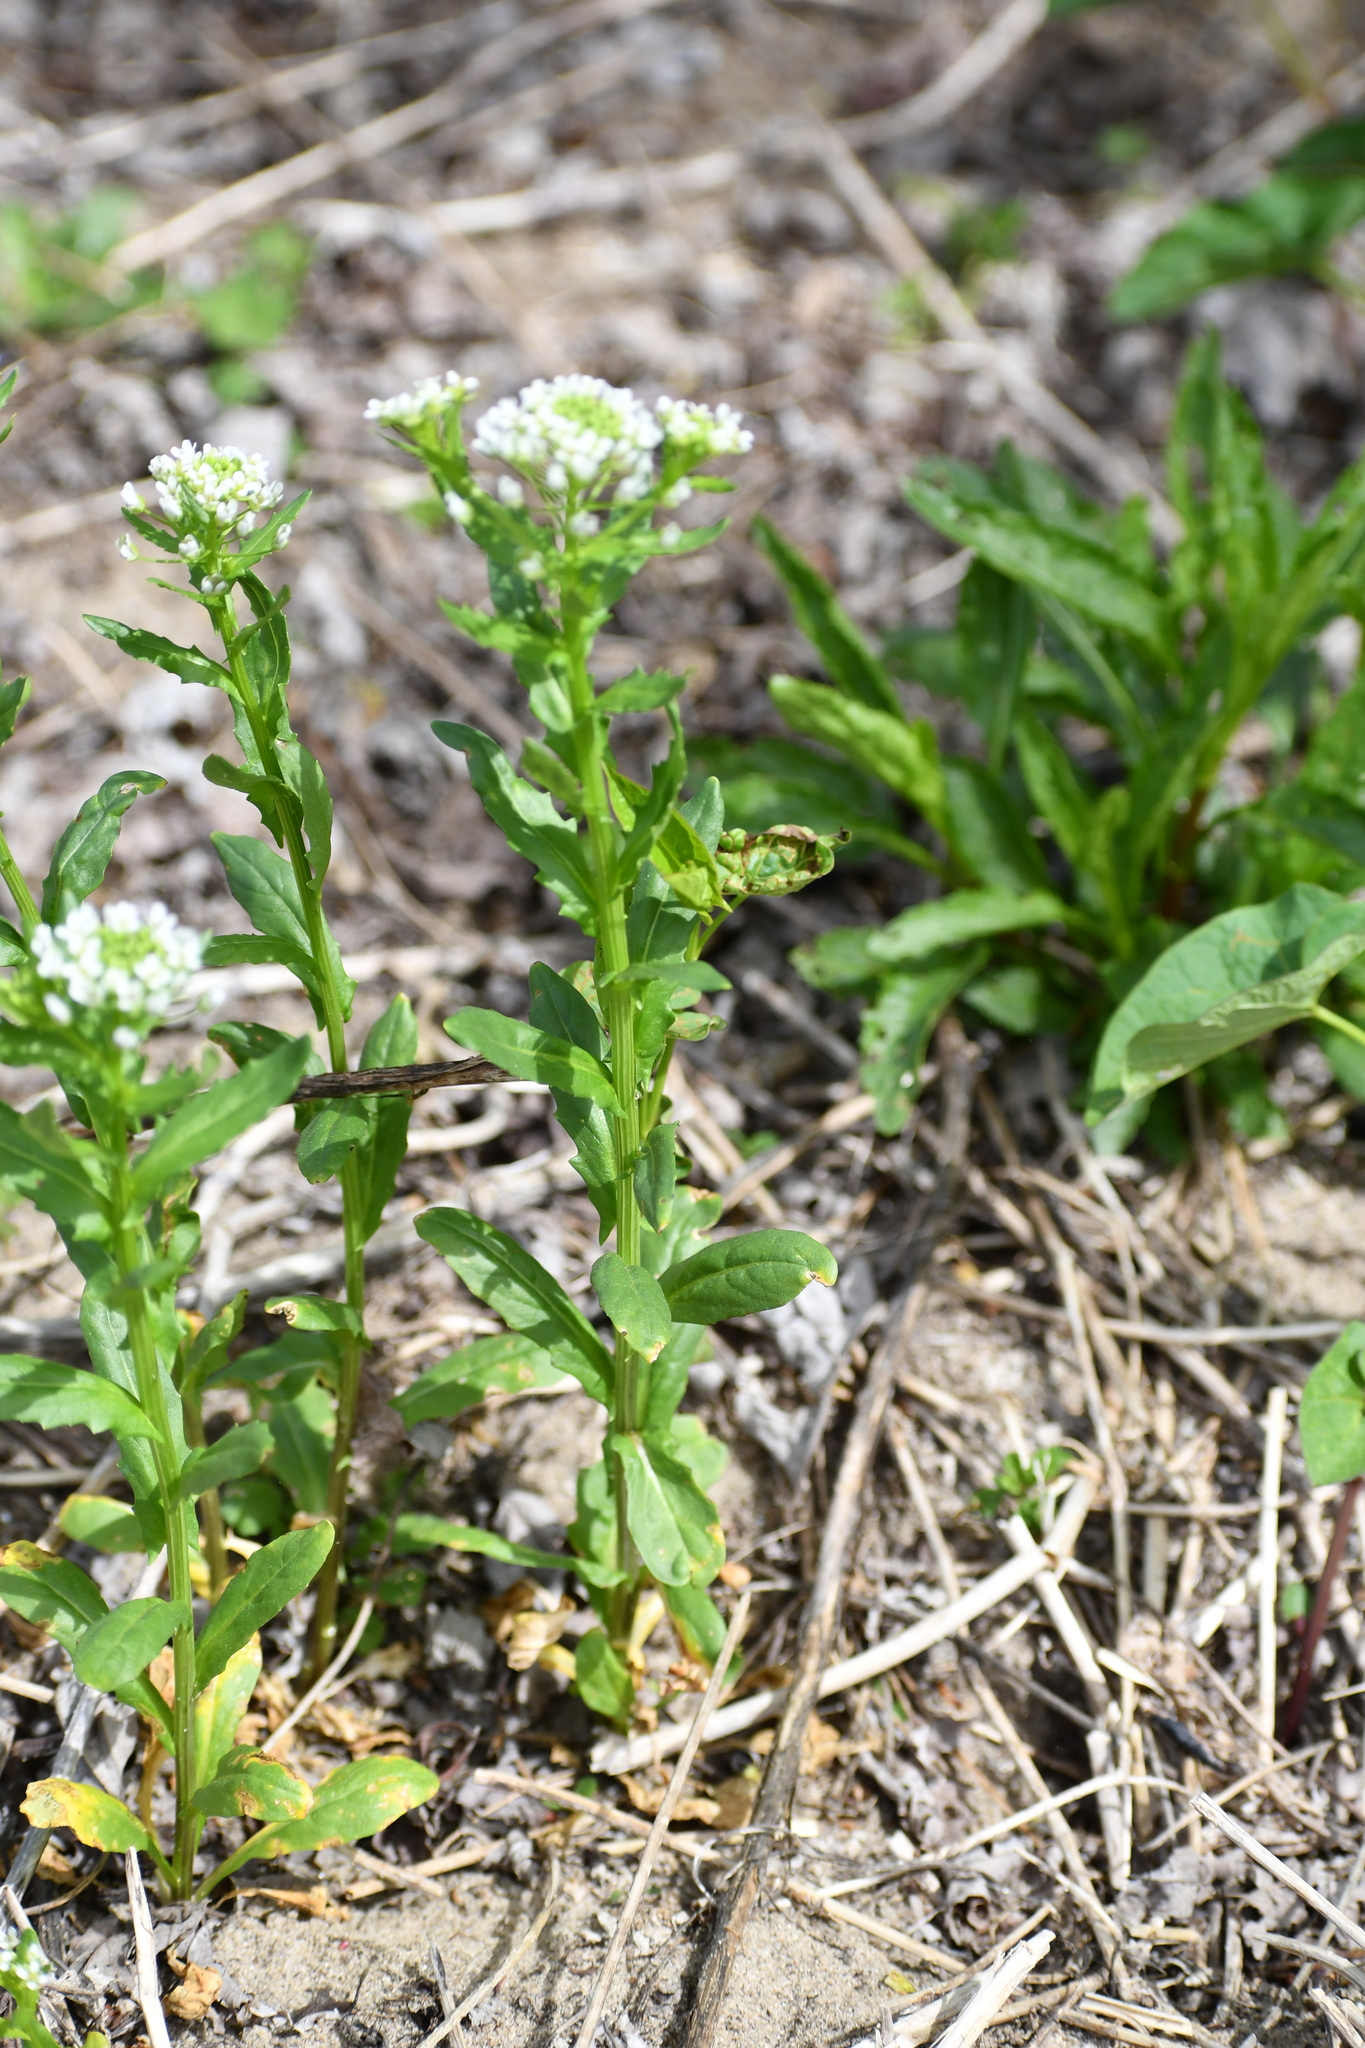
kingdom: Plantae
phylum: Tracheophyta
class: Magnoliopsida
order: Brassicales
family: Brassicaceae
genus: Thlaspi
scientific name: Thlaspi arvense
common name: Field pennycress
